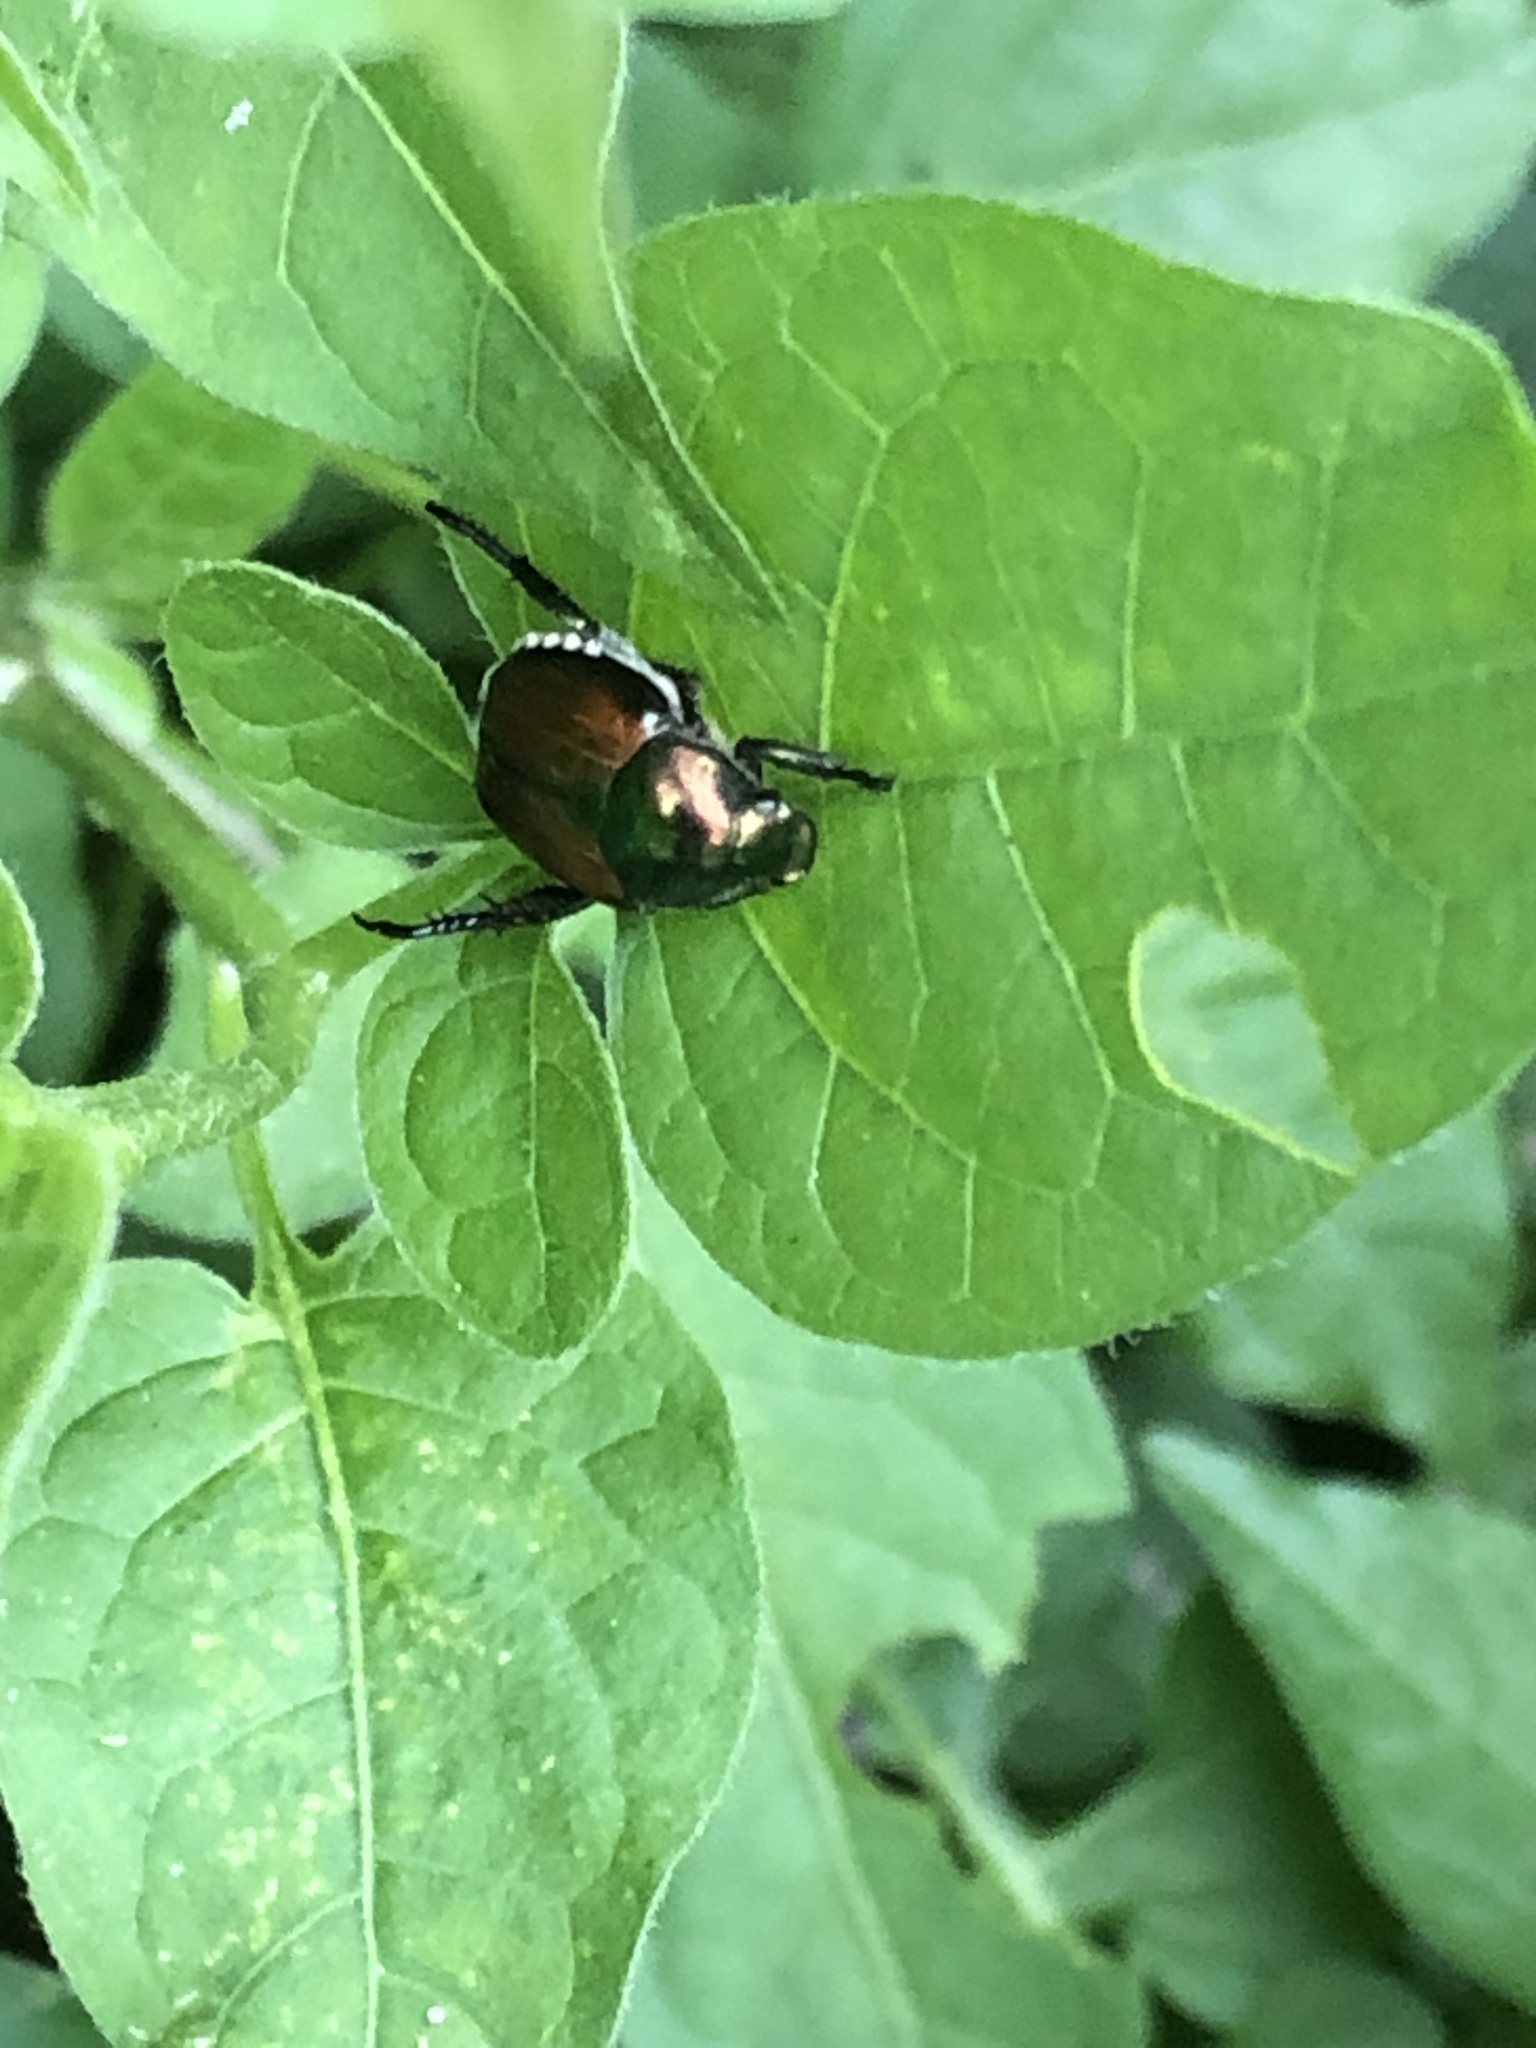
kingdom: Animalia
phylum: Arthropoda
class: Insecta
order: Coleoptera
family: Scarabaeidae
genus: Popillia
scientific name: Popillia japonica
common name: Japanese beetle
